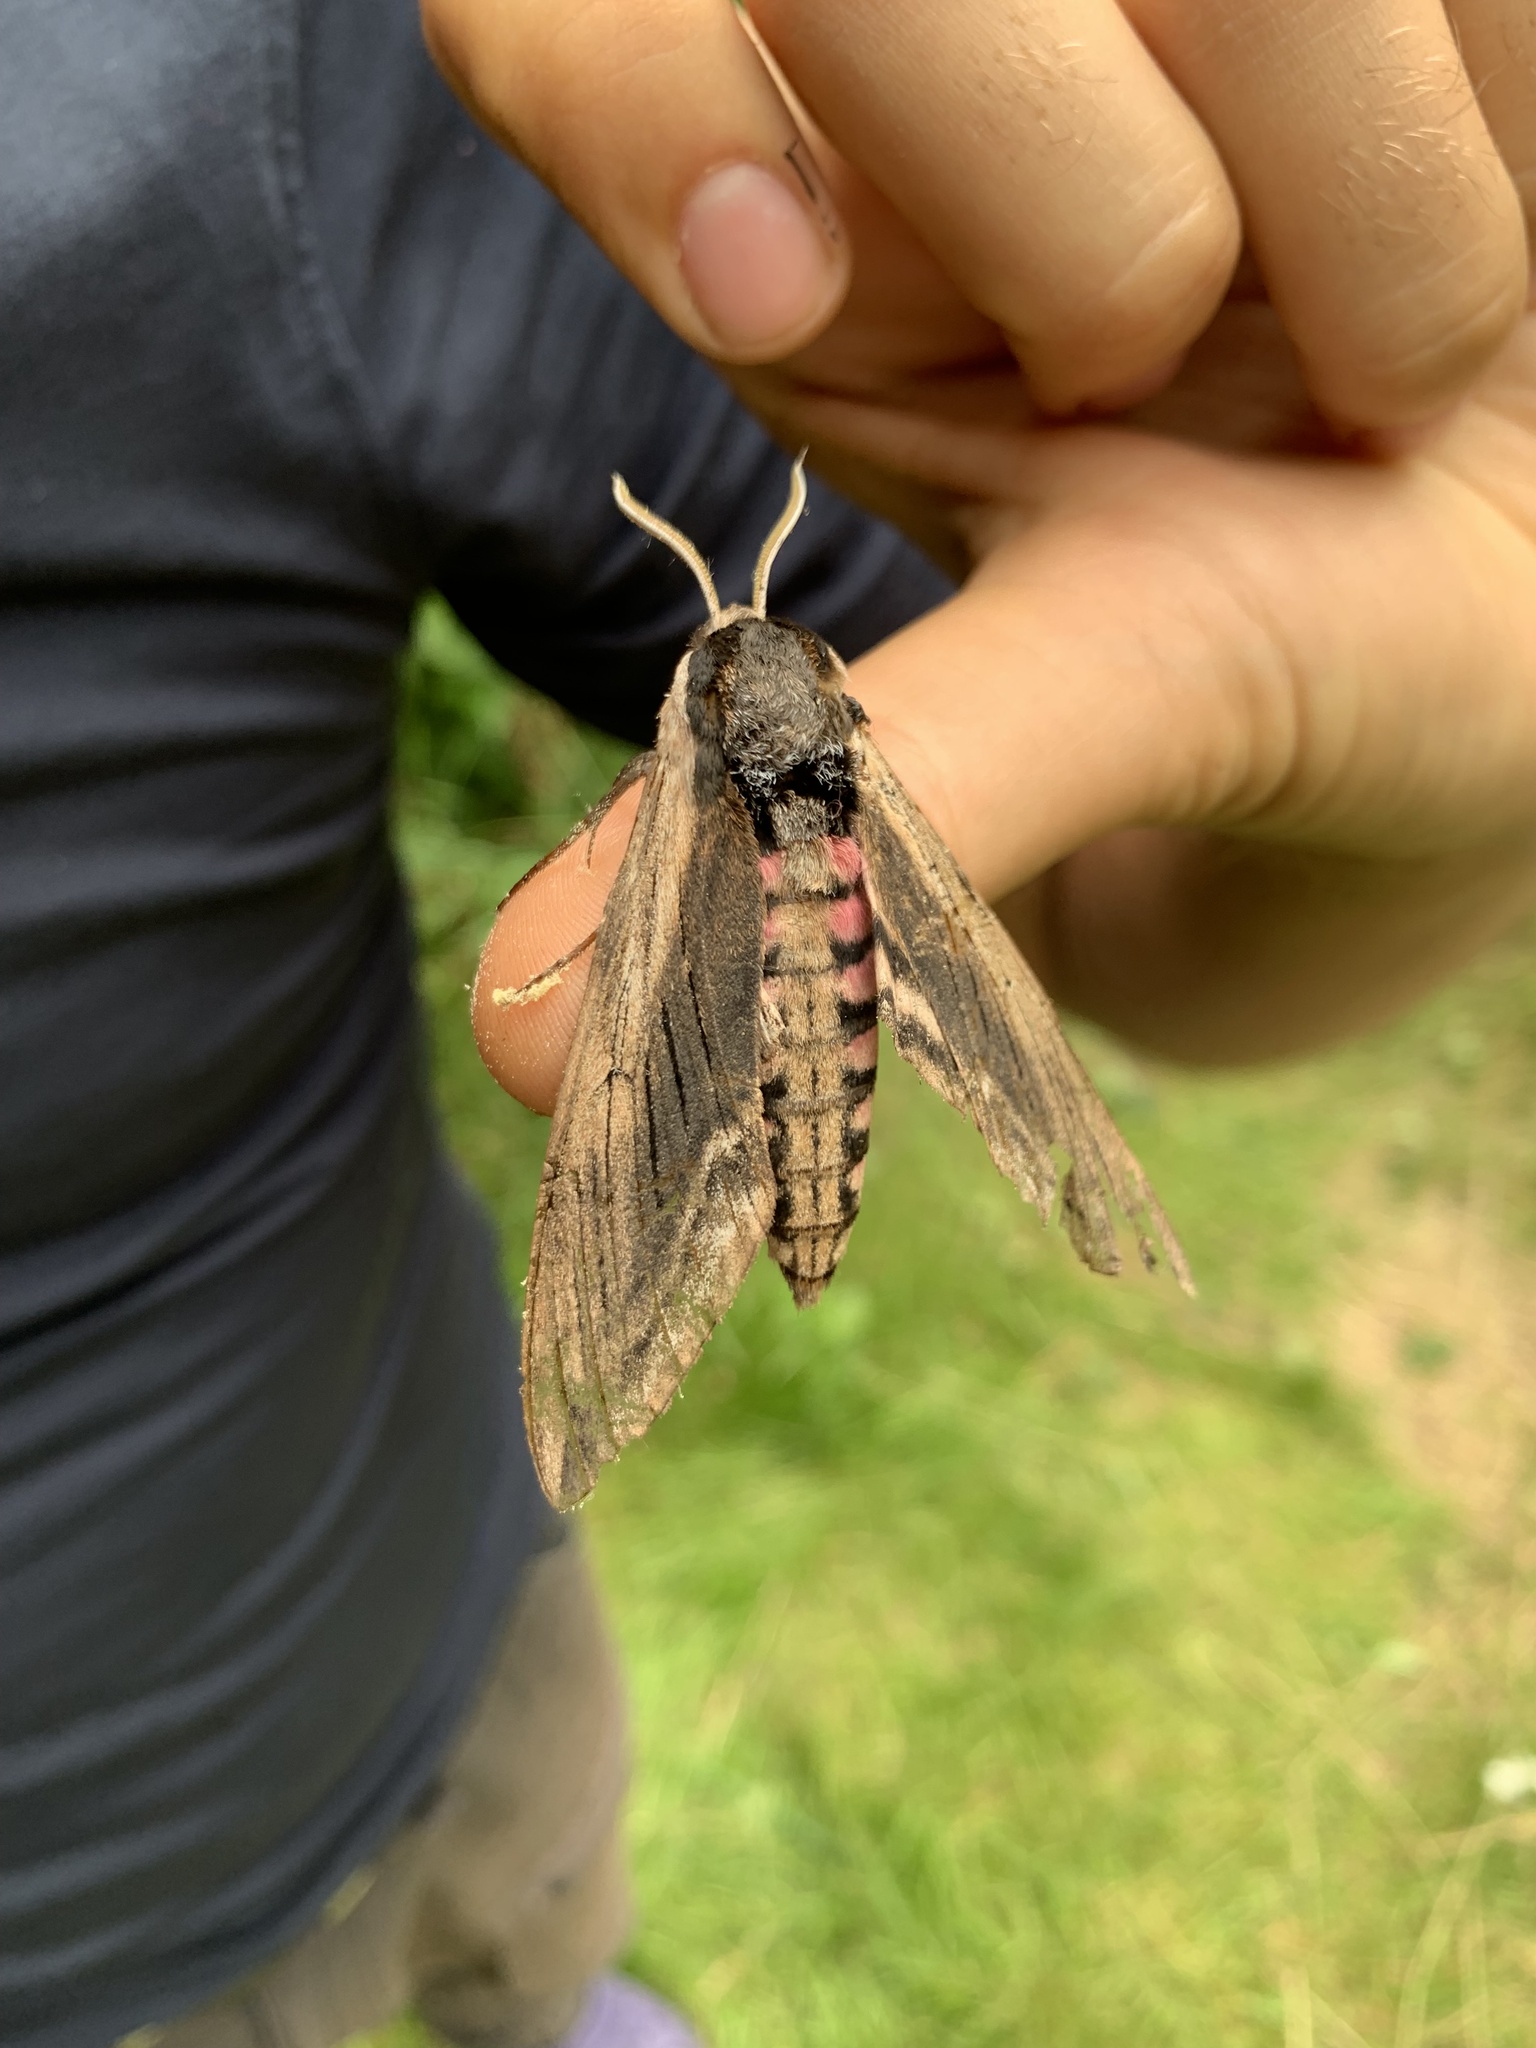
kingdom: Animalia
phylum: Arthropoda
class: Insecta
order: Lepidoptera
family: Sphingidae
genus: Sphinx
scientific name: Sphinx ligustri
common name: Privet hawk-moth
